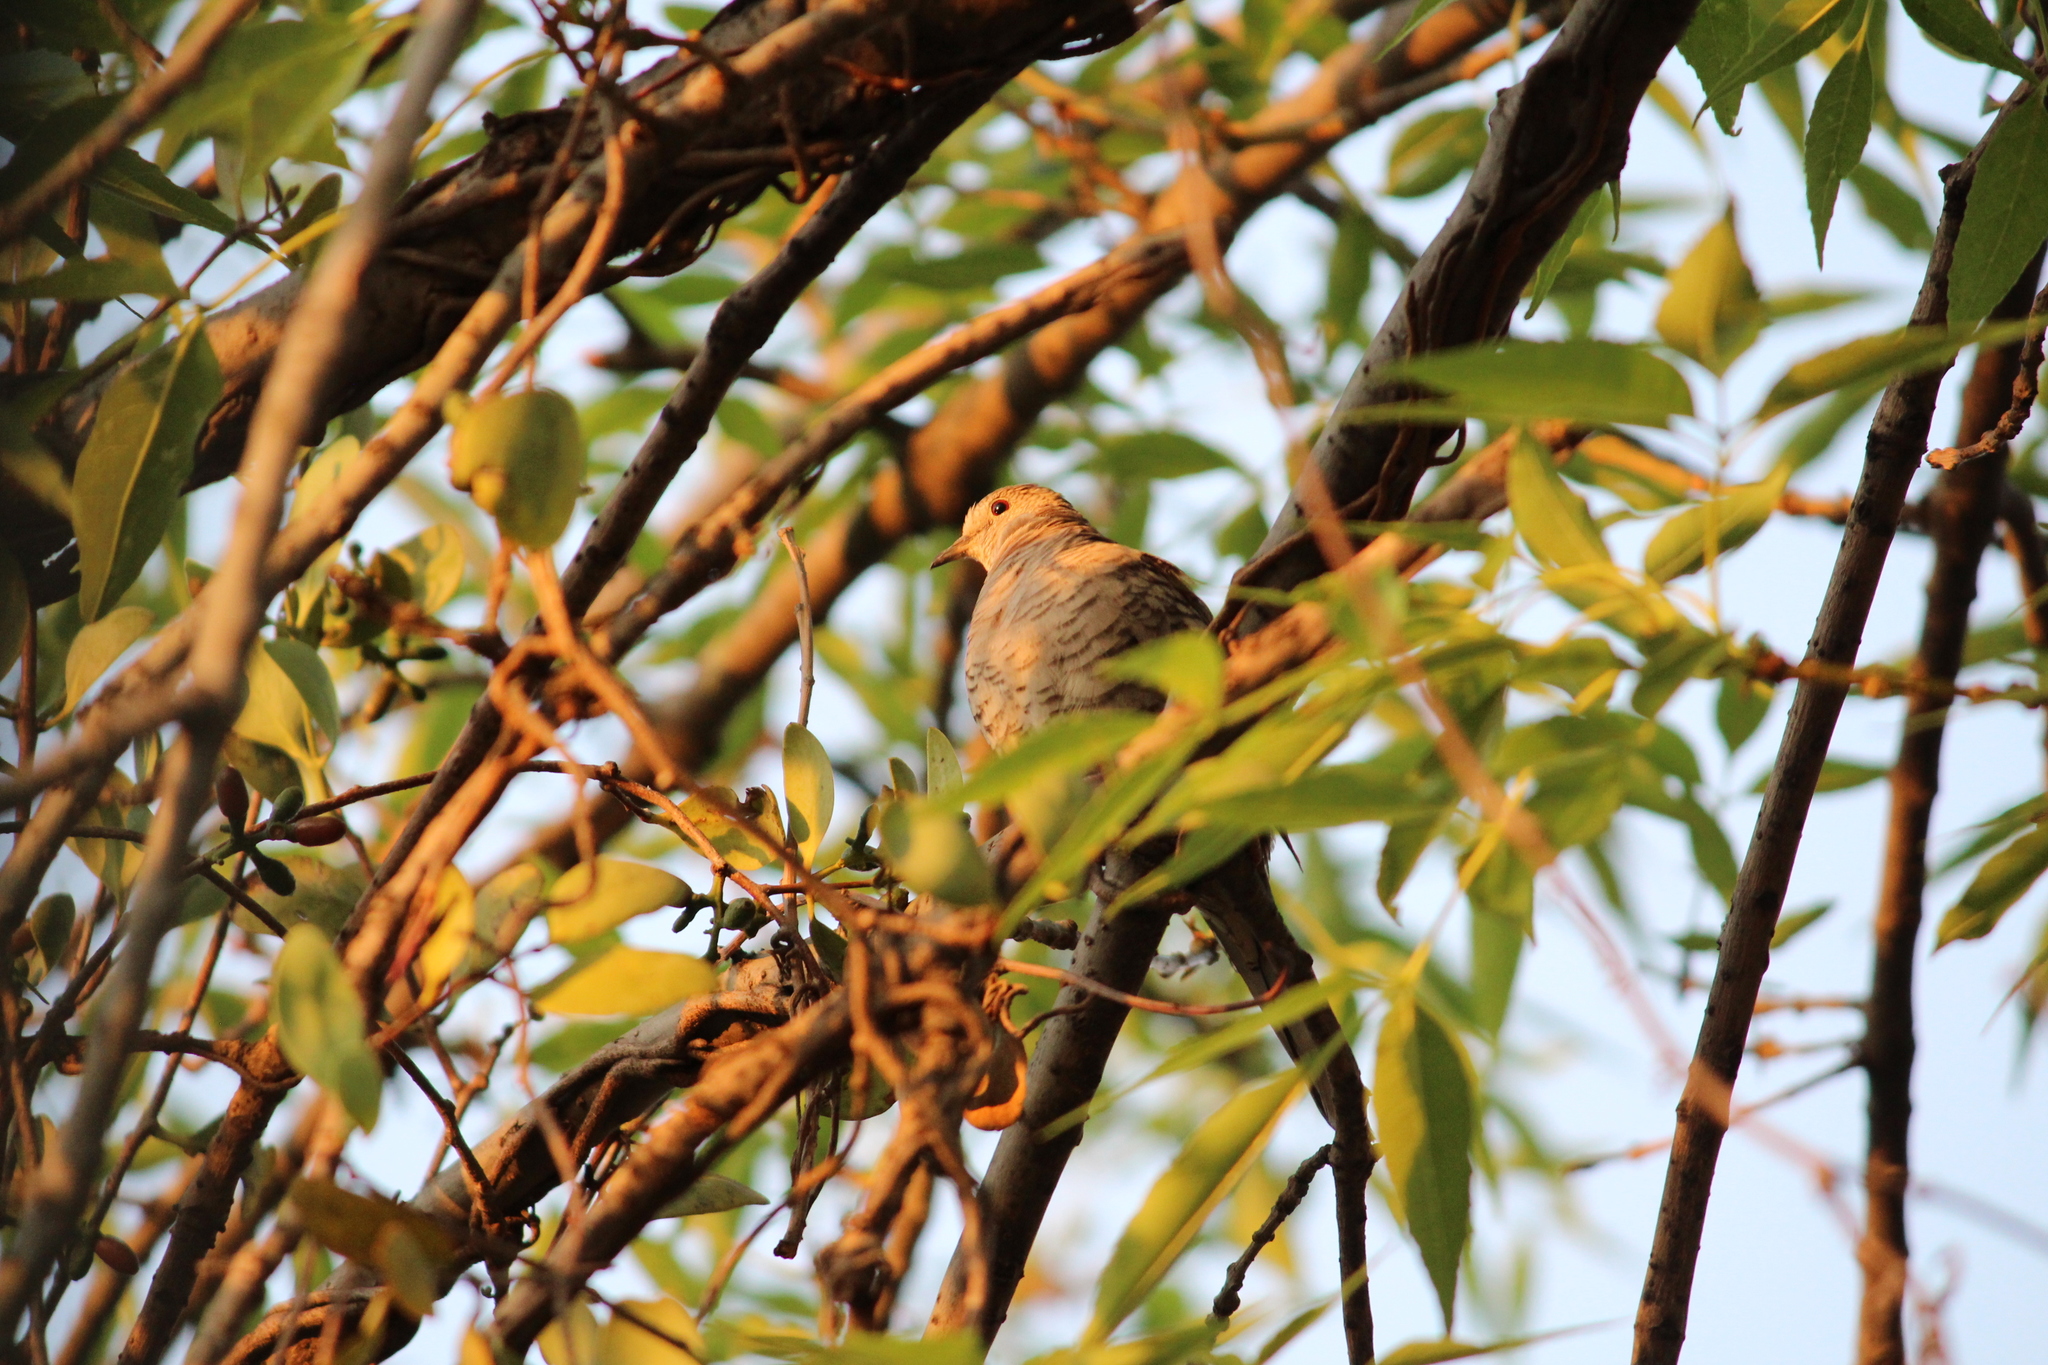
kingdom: Animalia
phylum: Chordata
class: Aves
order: Columbiformes
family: Columbidae
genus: Columbina
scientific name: Columbina inca
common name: Inca dove
